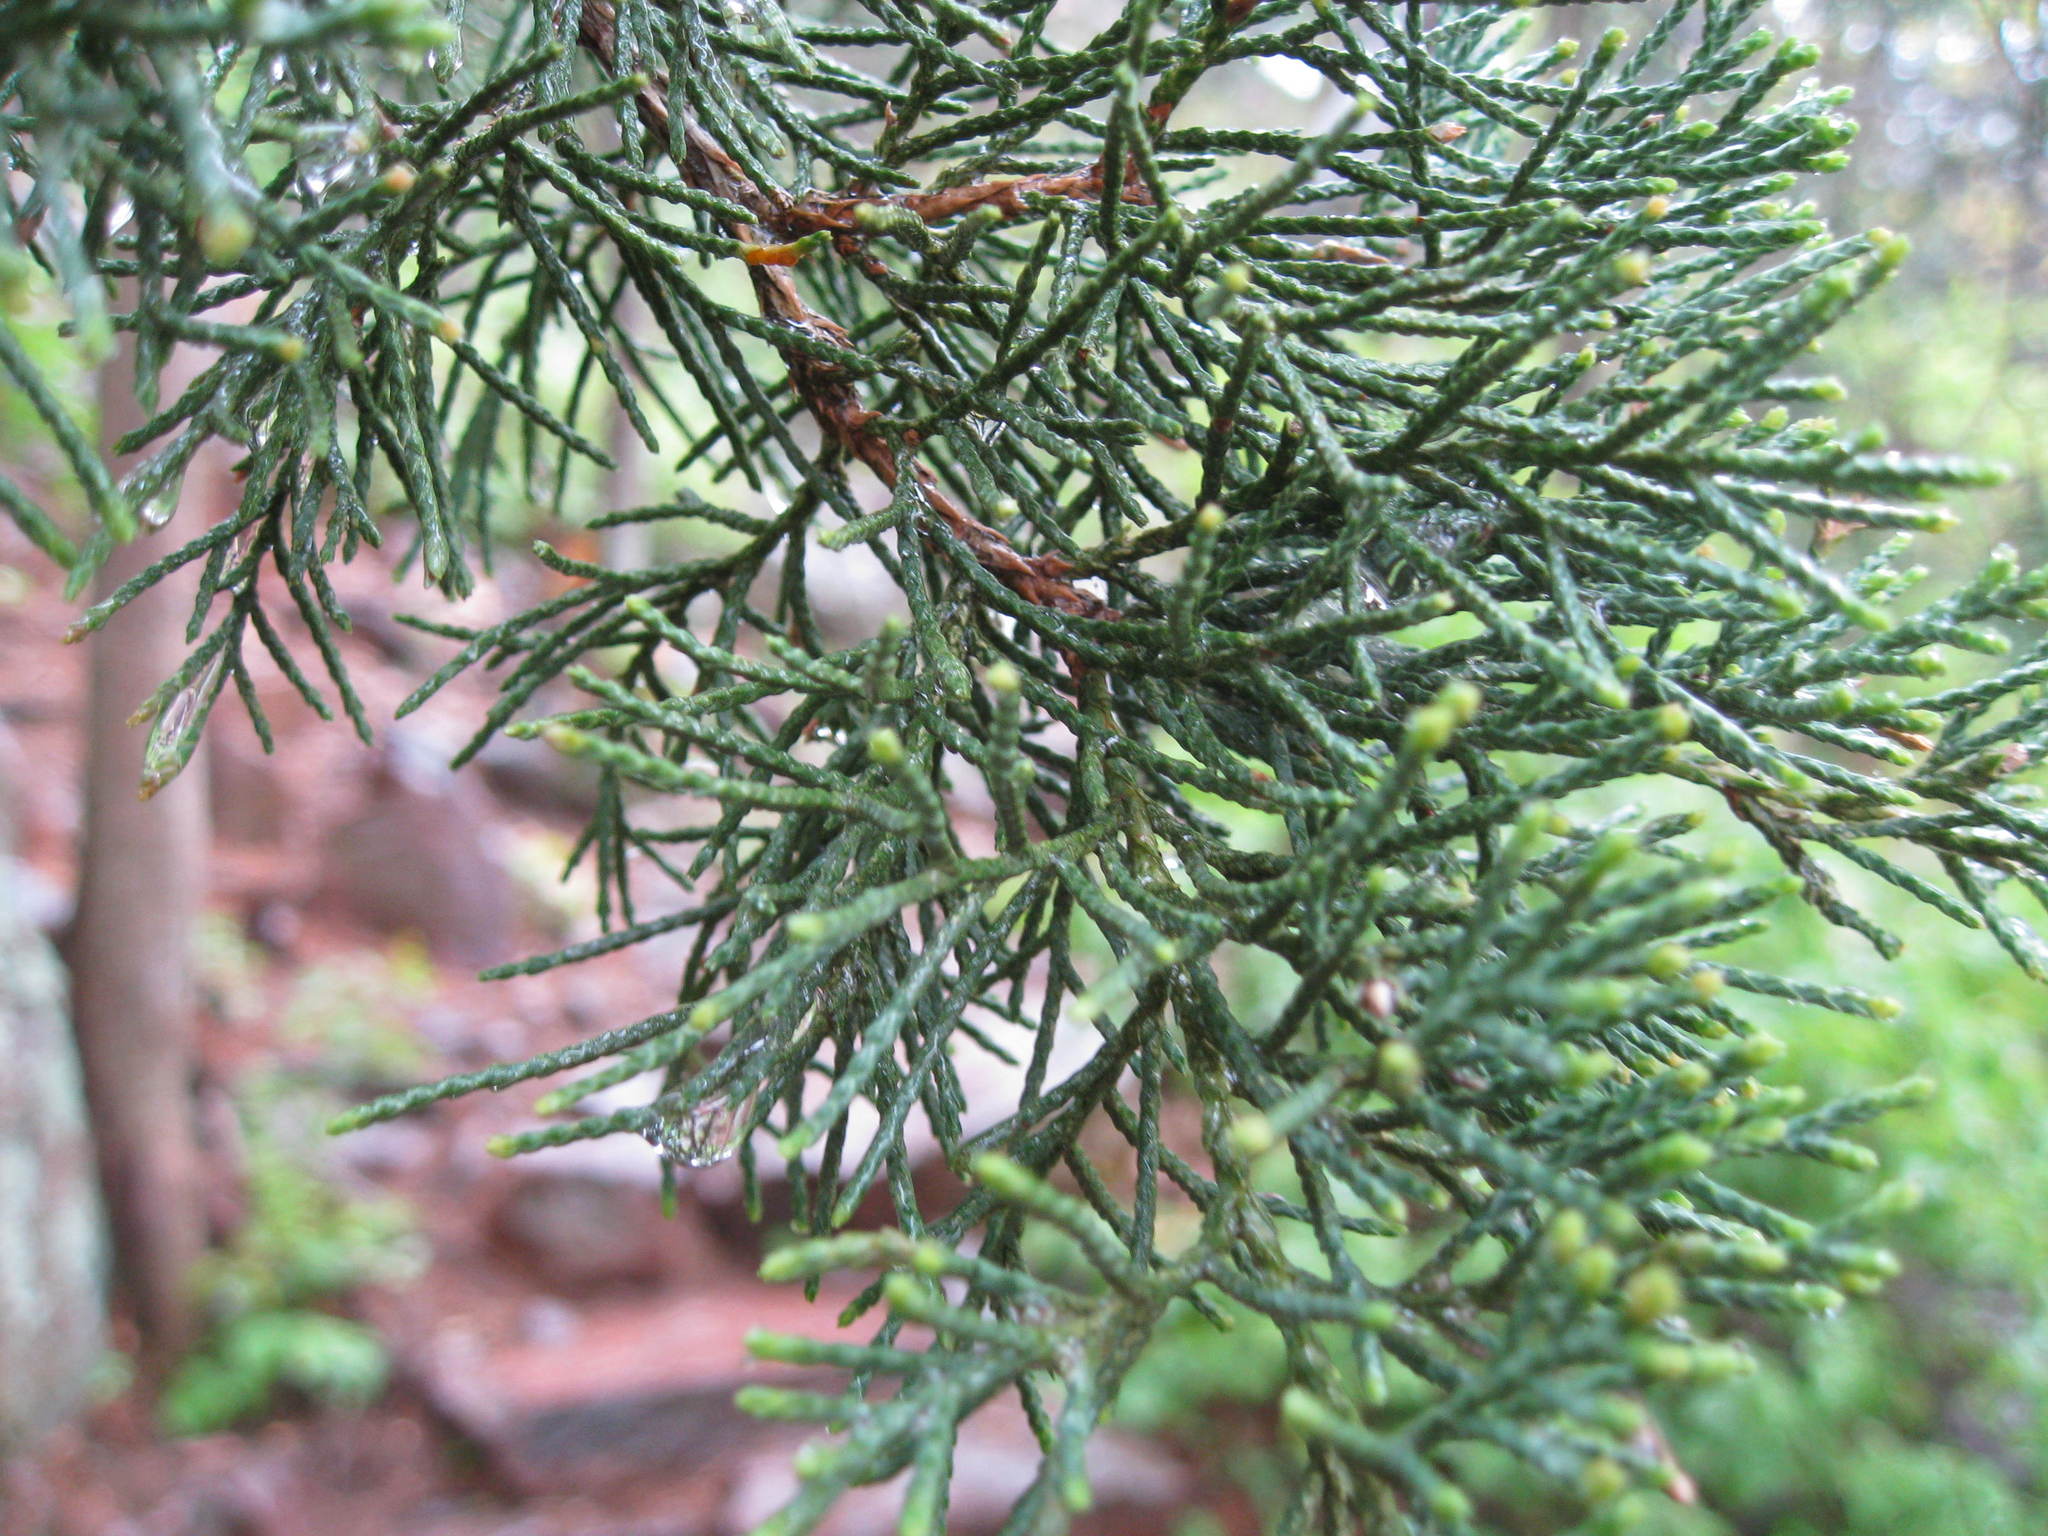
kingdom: Plantae
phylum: Tracheophyta
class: Pinopsida
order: Pinales
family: Cupressaceae
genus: Juniperus
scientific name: Juniperus virginiana
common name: Red juniper
